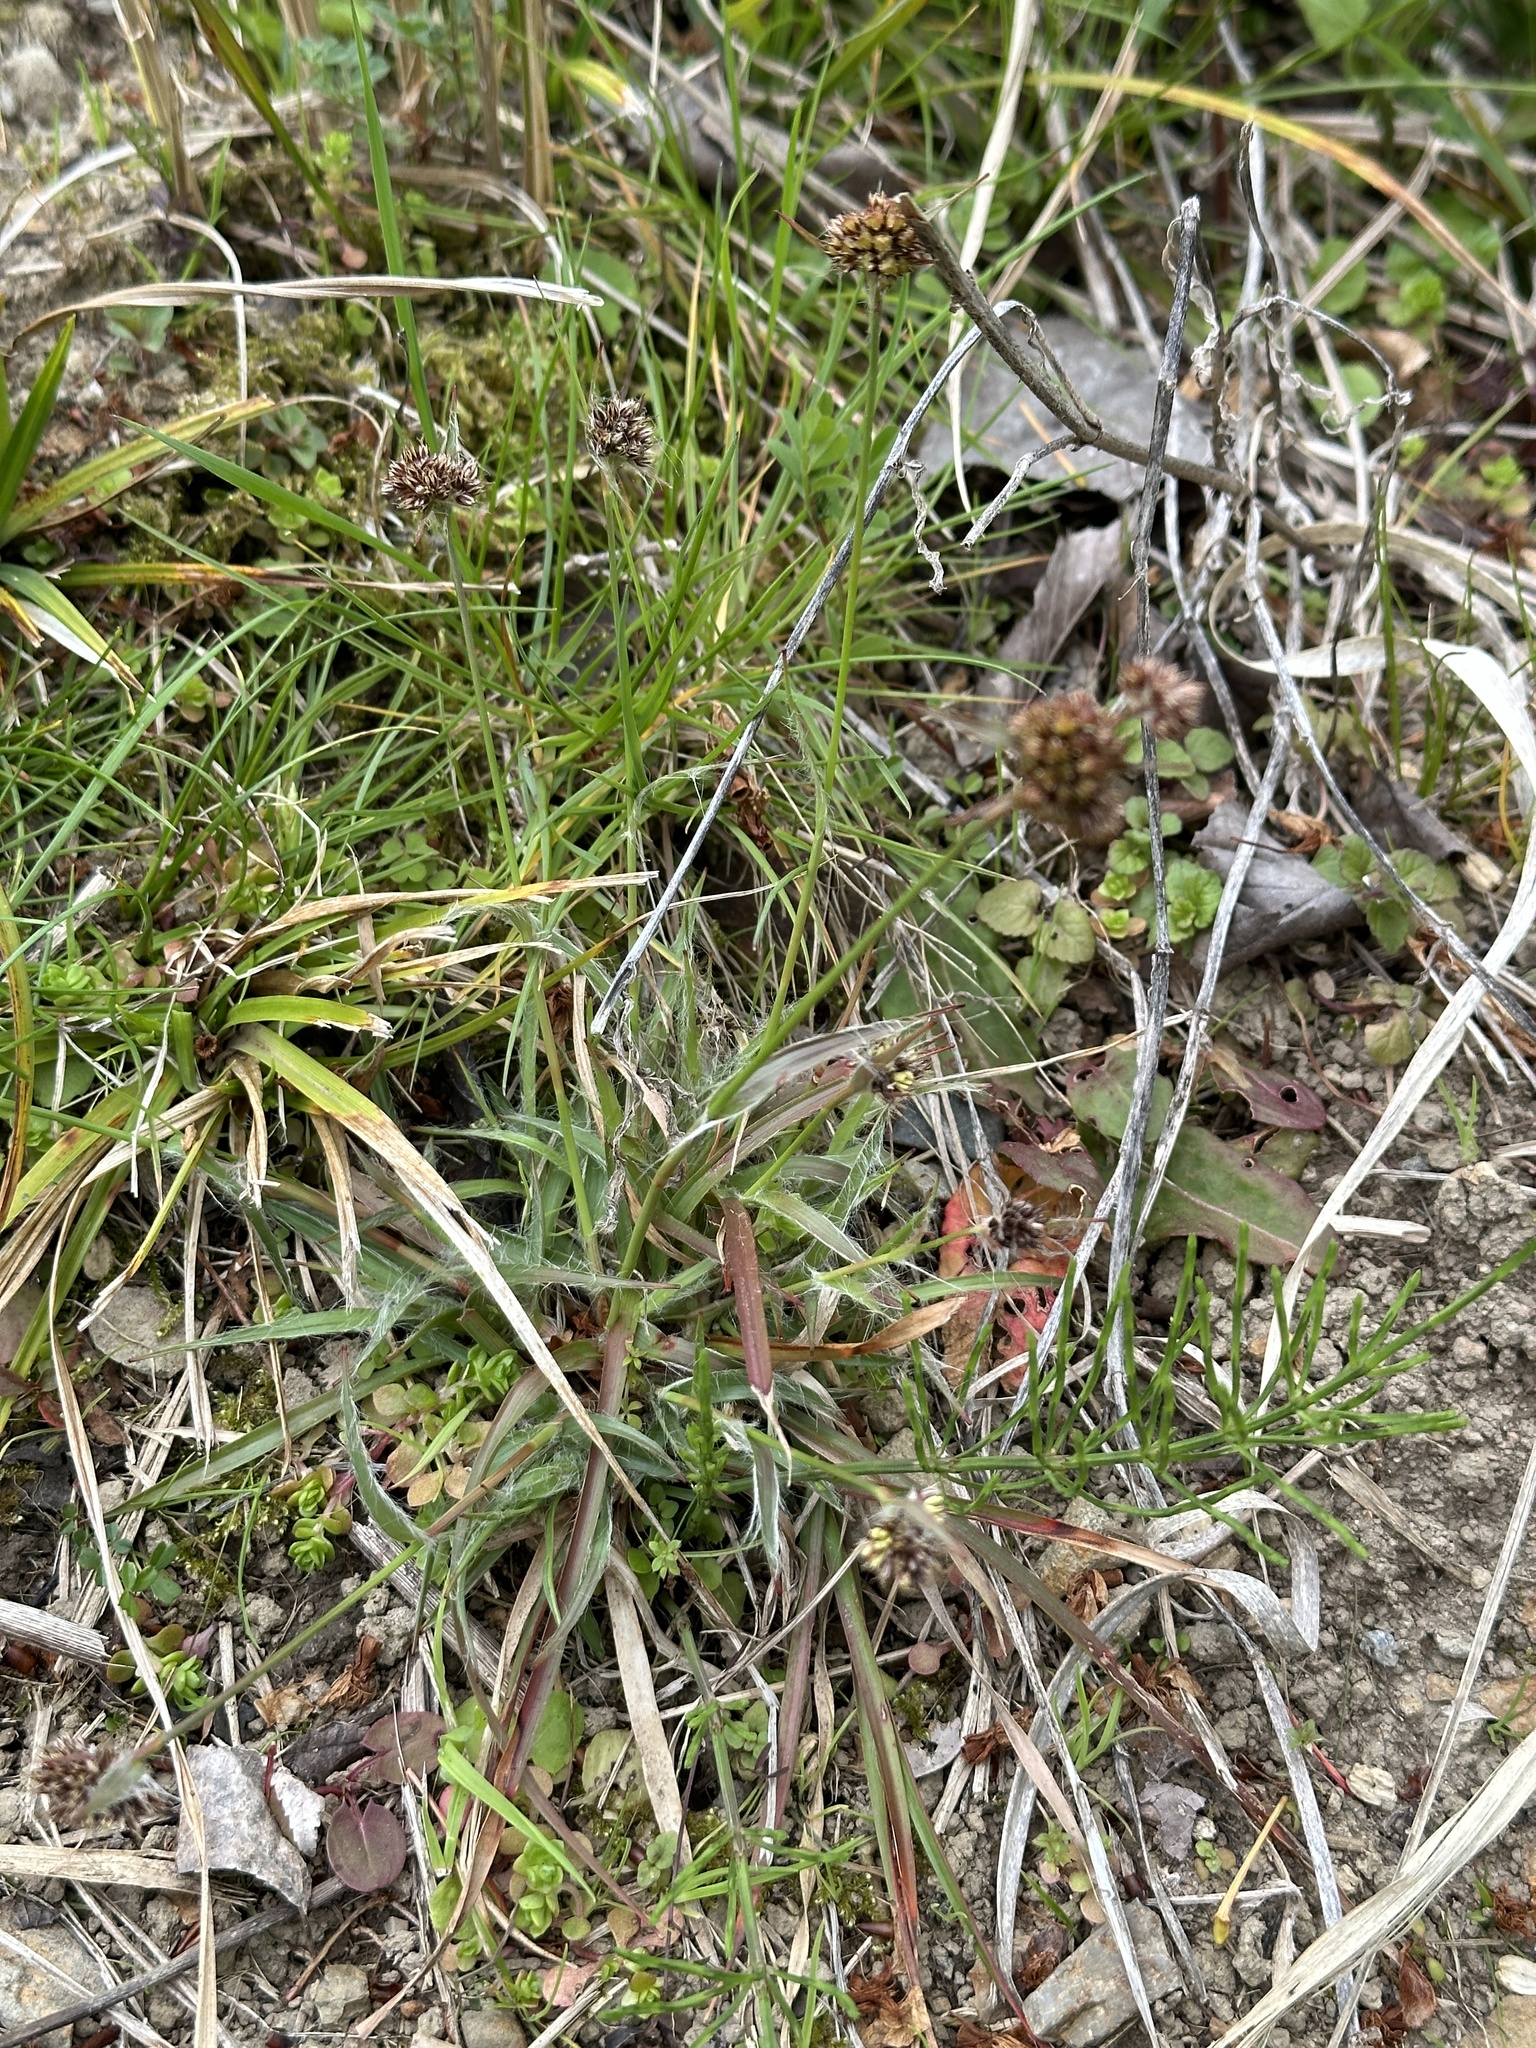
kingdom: Plantae
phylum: Tracheophyta
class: Liliopsida
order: Poales
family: Juncaceae
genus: Luzula
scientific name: Luzula capitata
